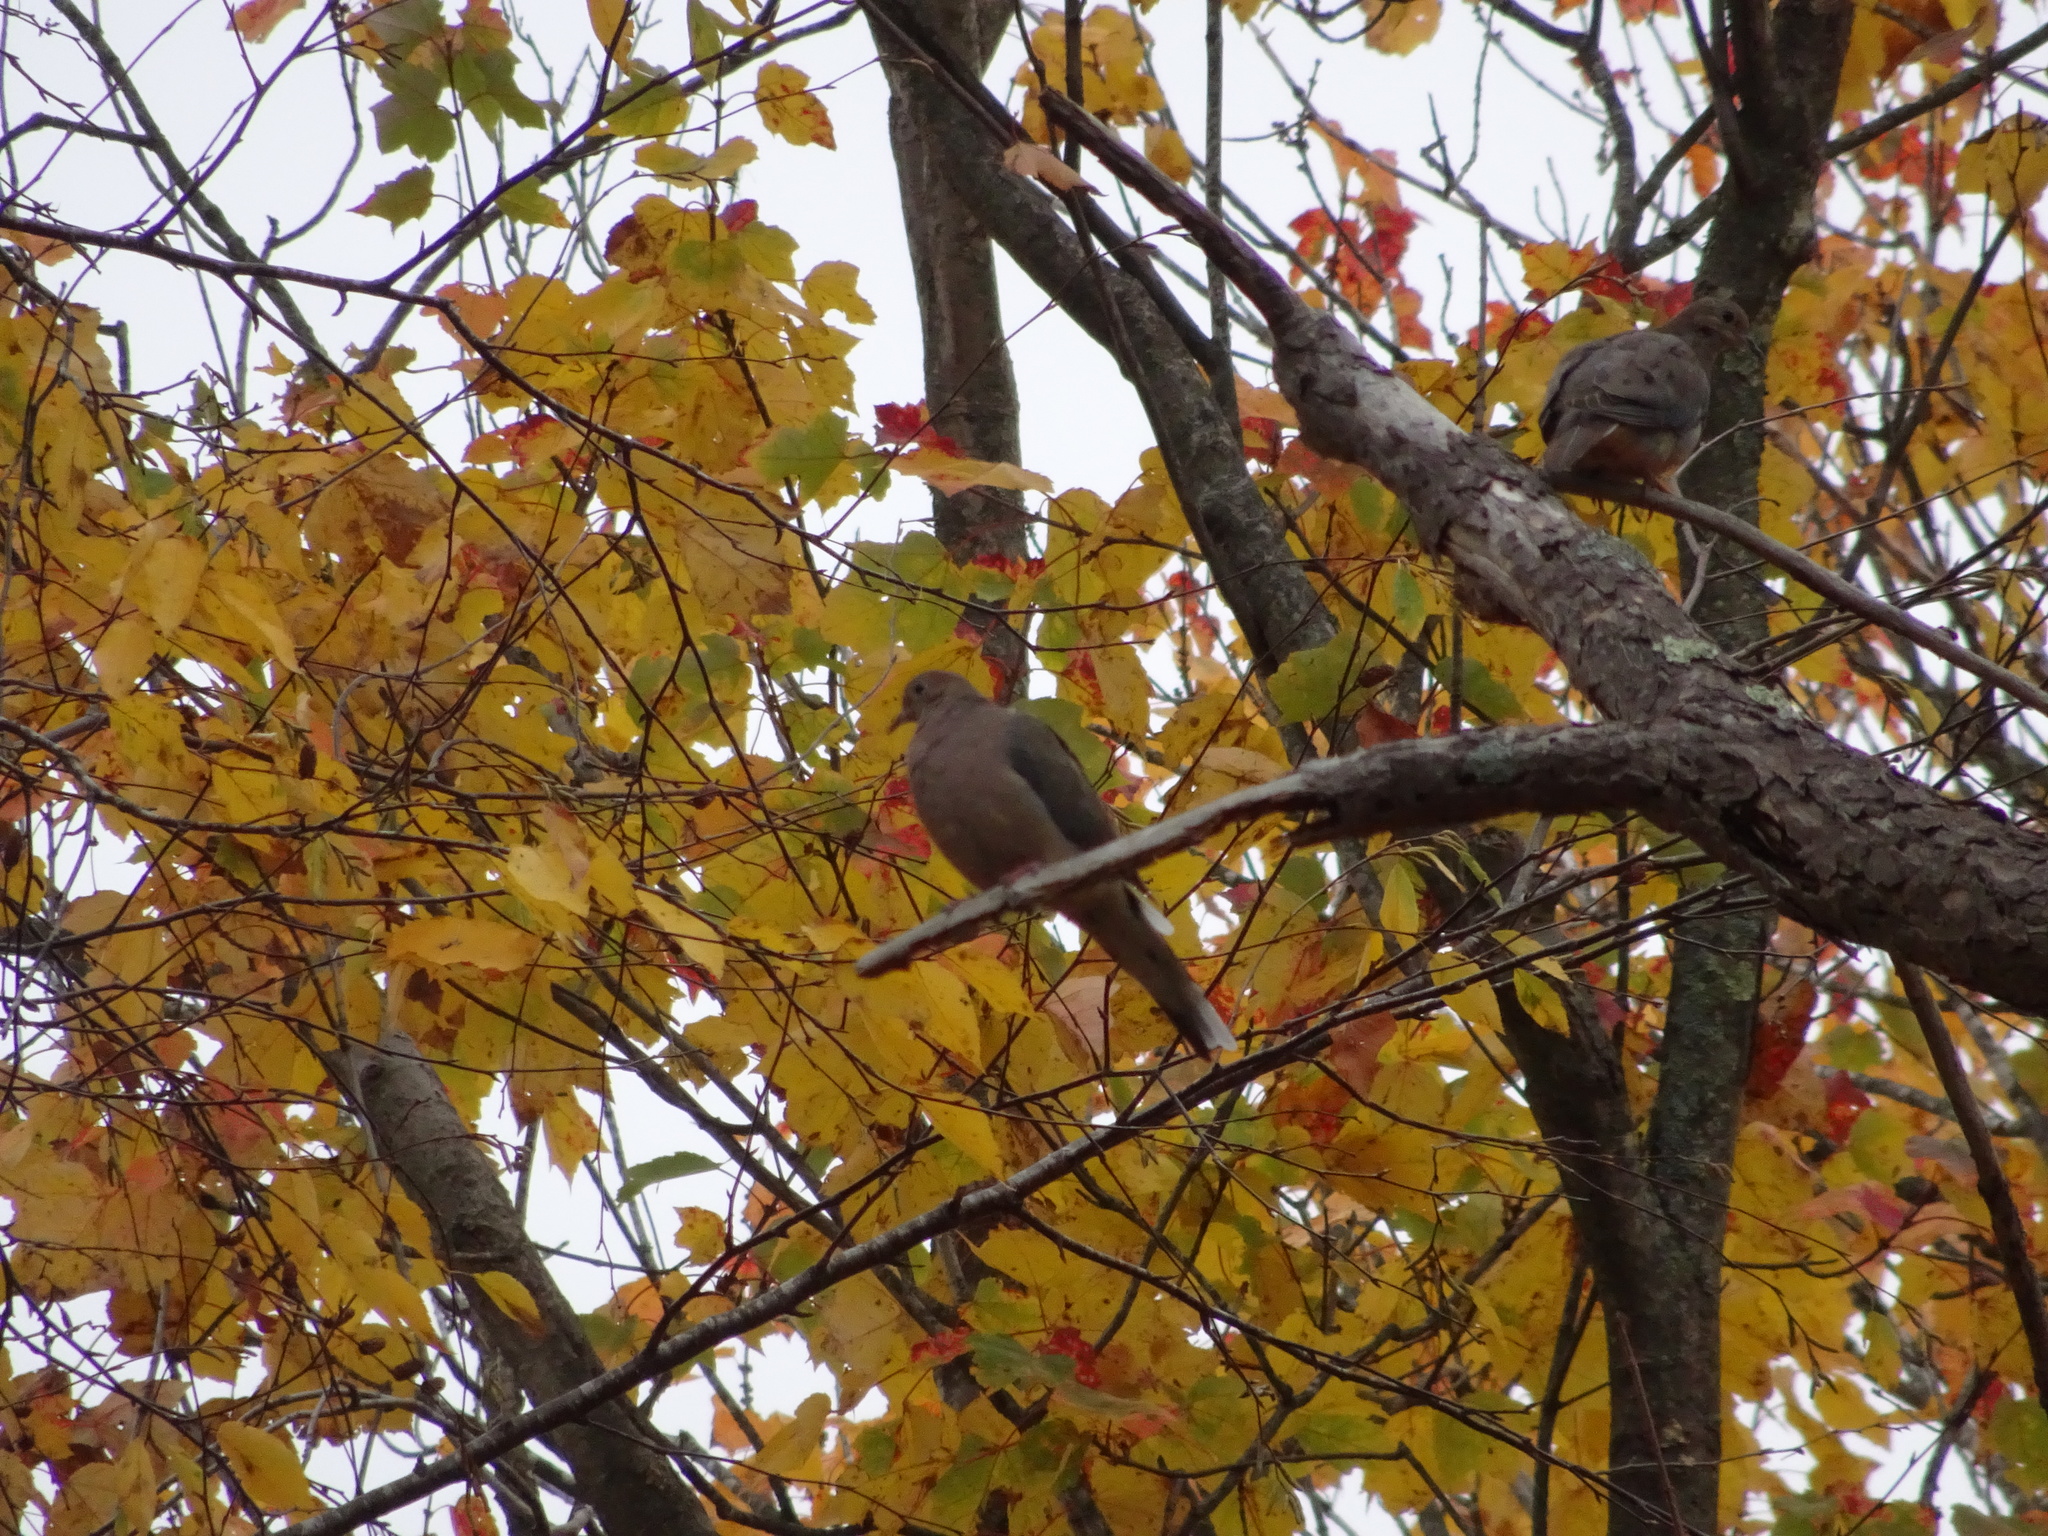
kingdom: Animalia
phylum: Chordata
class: Aves
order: Columbiformes
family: Columbidae
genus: Zenaida
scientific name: Zenaida macroura
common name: Mourning dove
